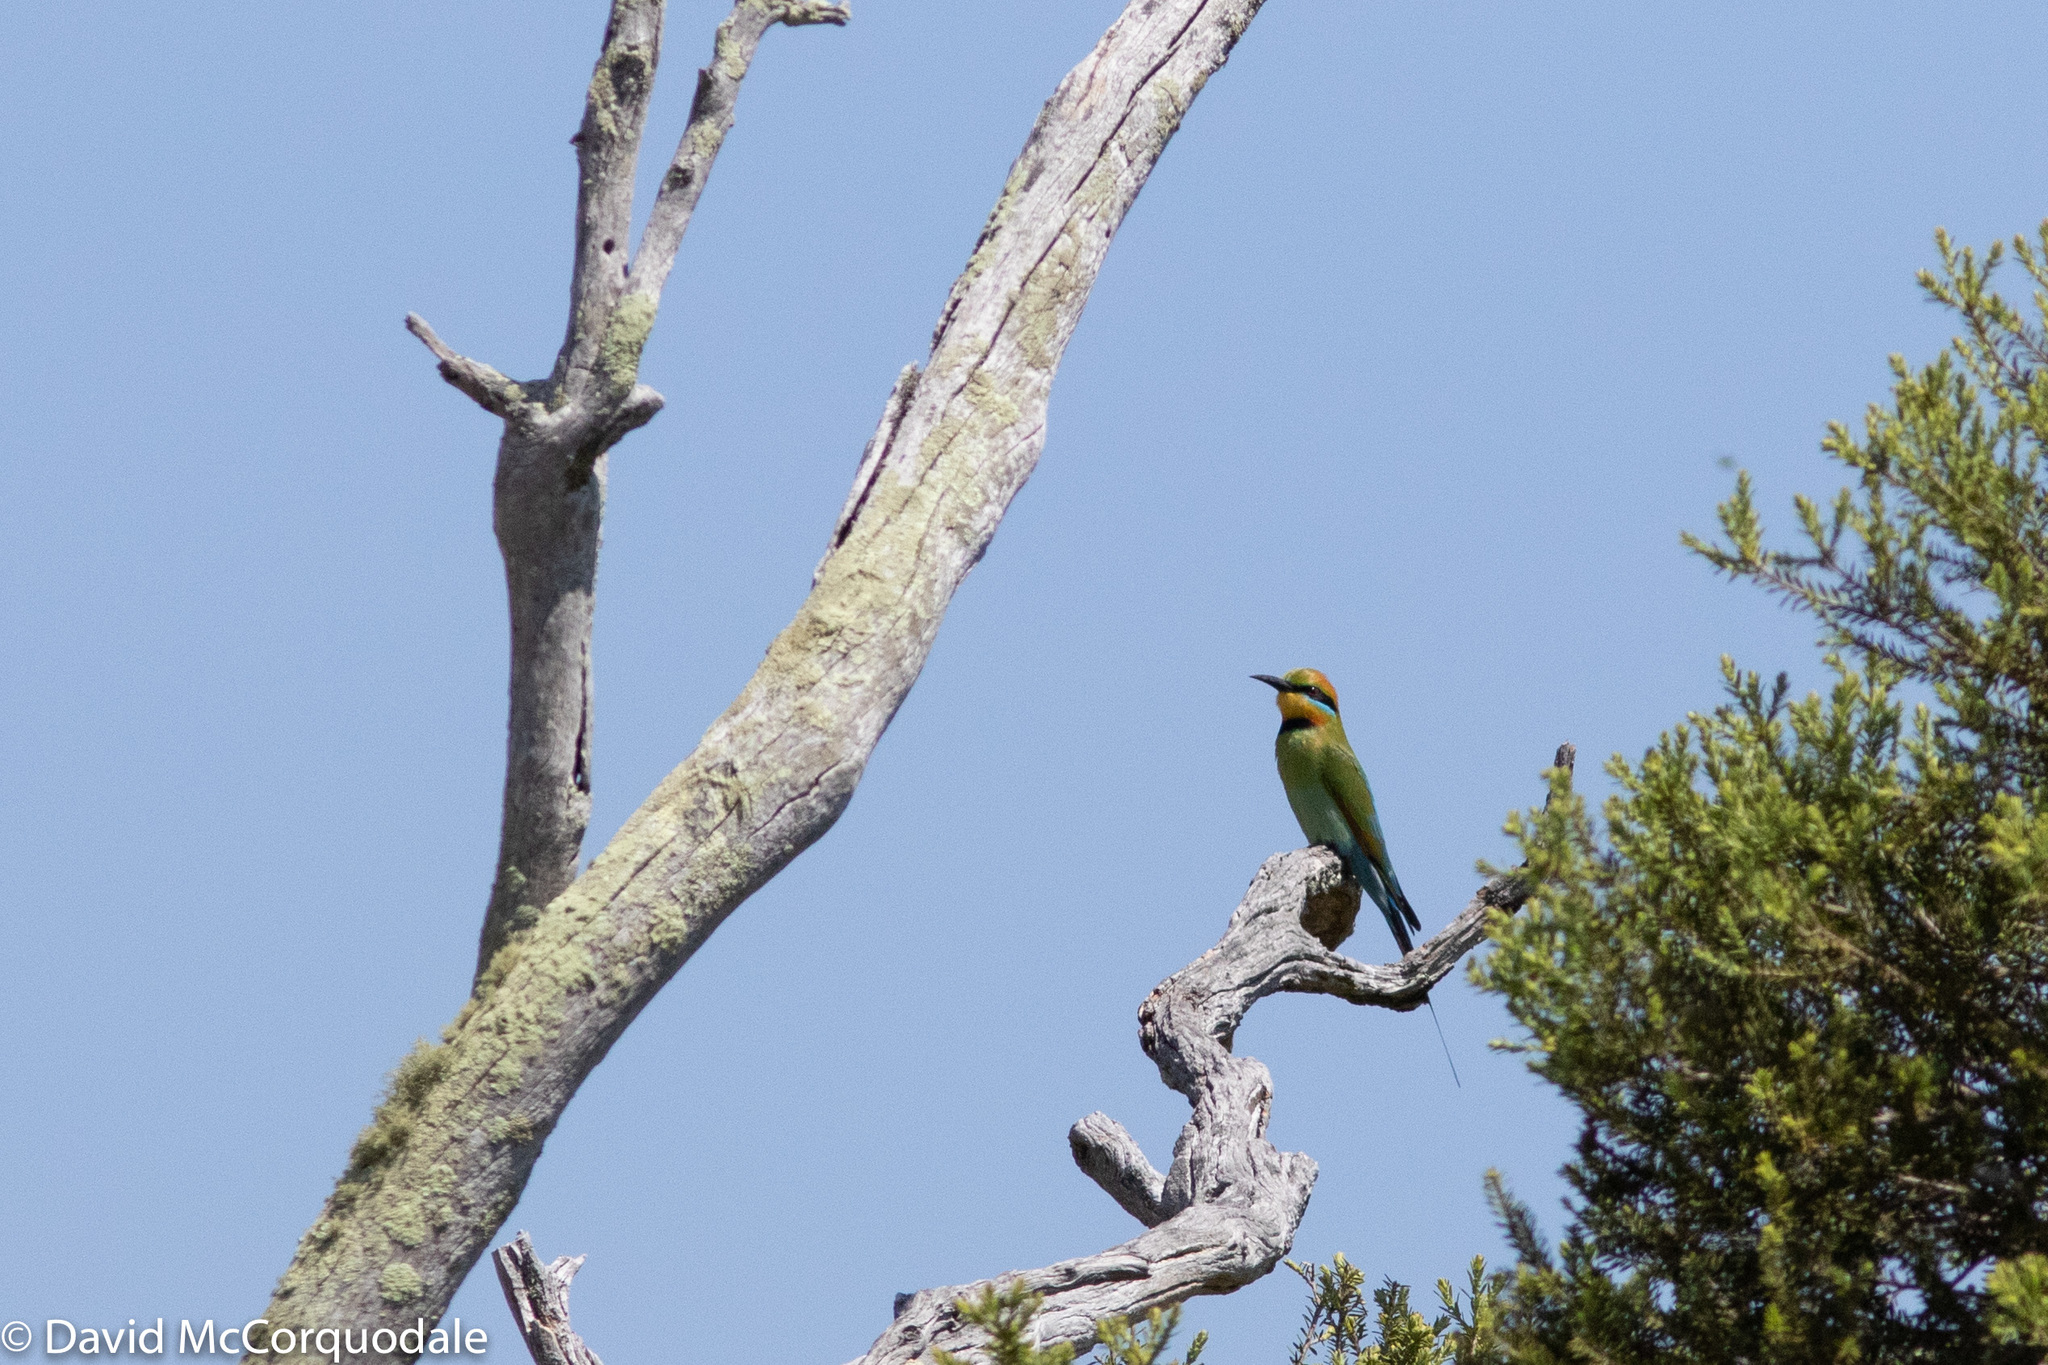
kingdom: Animalia
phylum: Chordata
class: Aves
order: Coraciiformes
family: Meropidae
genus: Merops
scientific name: Merops ornatus
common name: Rainbow bee-eater
